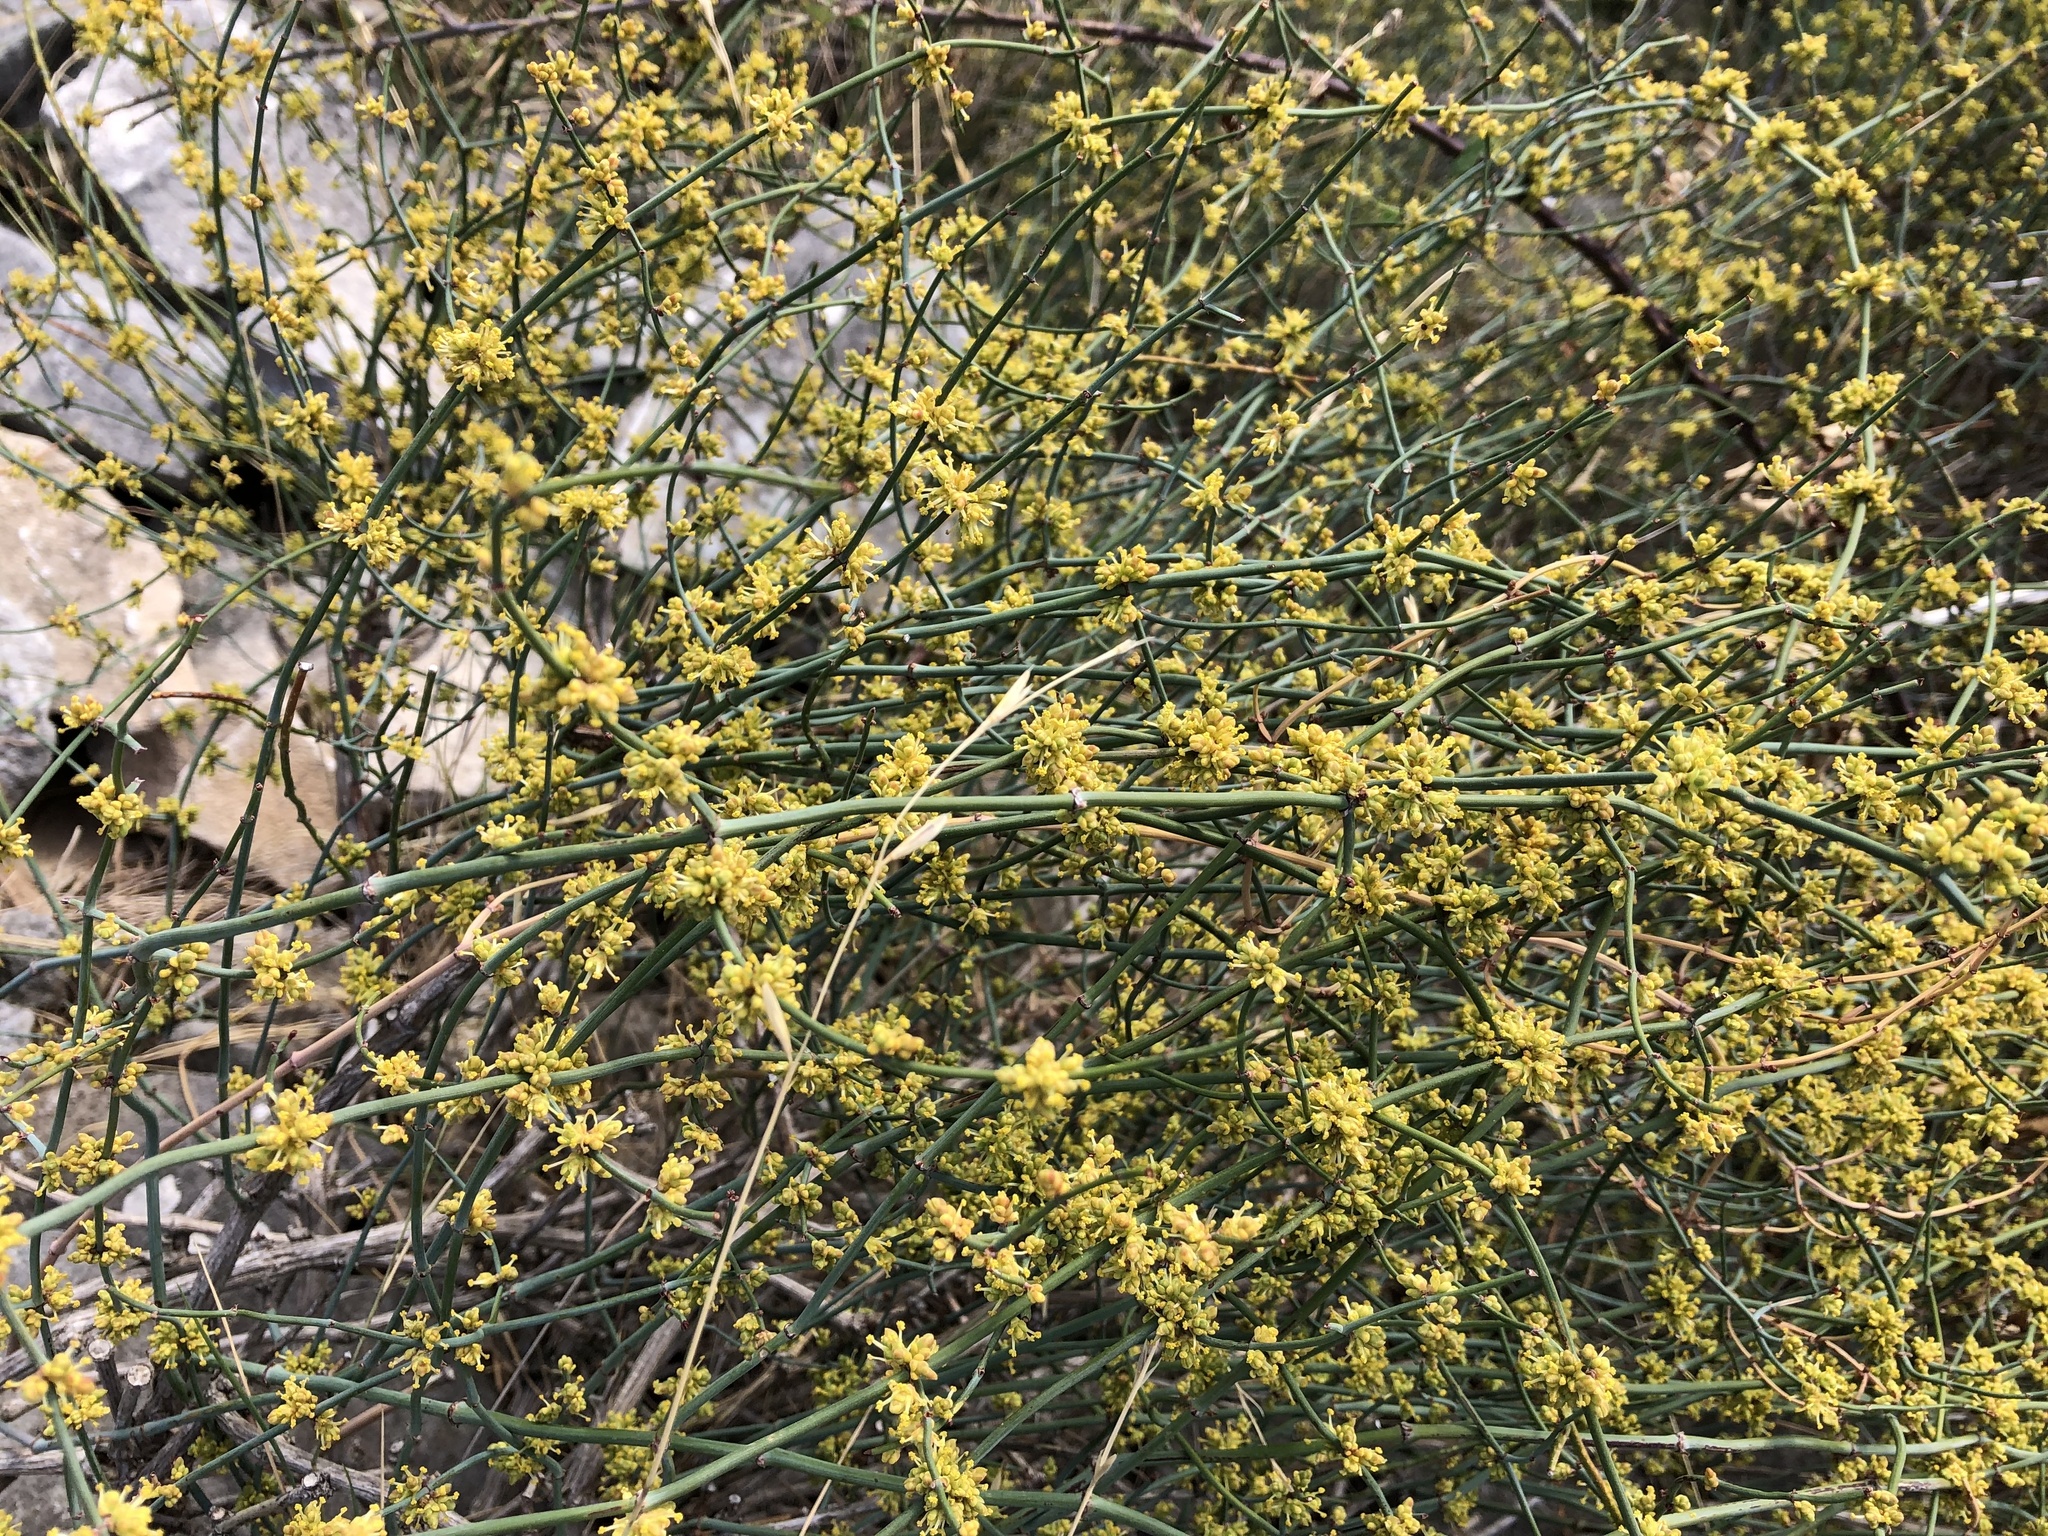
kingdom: Plantae
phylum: Tracheophyta
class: Gnetopsida
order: Ephedrales
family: Ephedraceae
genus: Ephedra
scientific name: Ephedra foeminea
